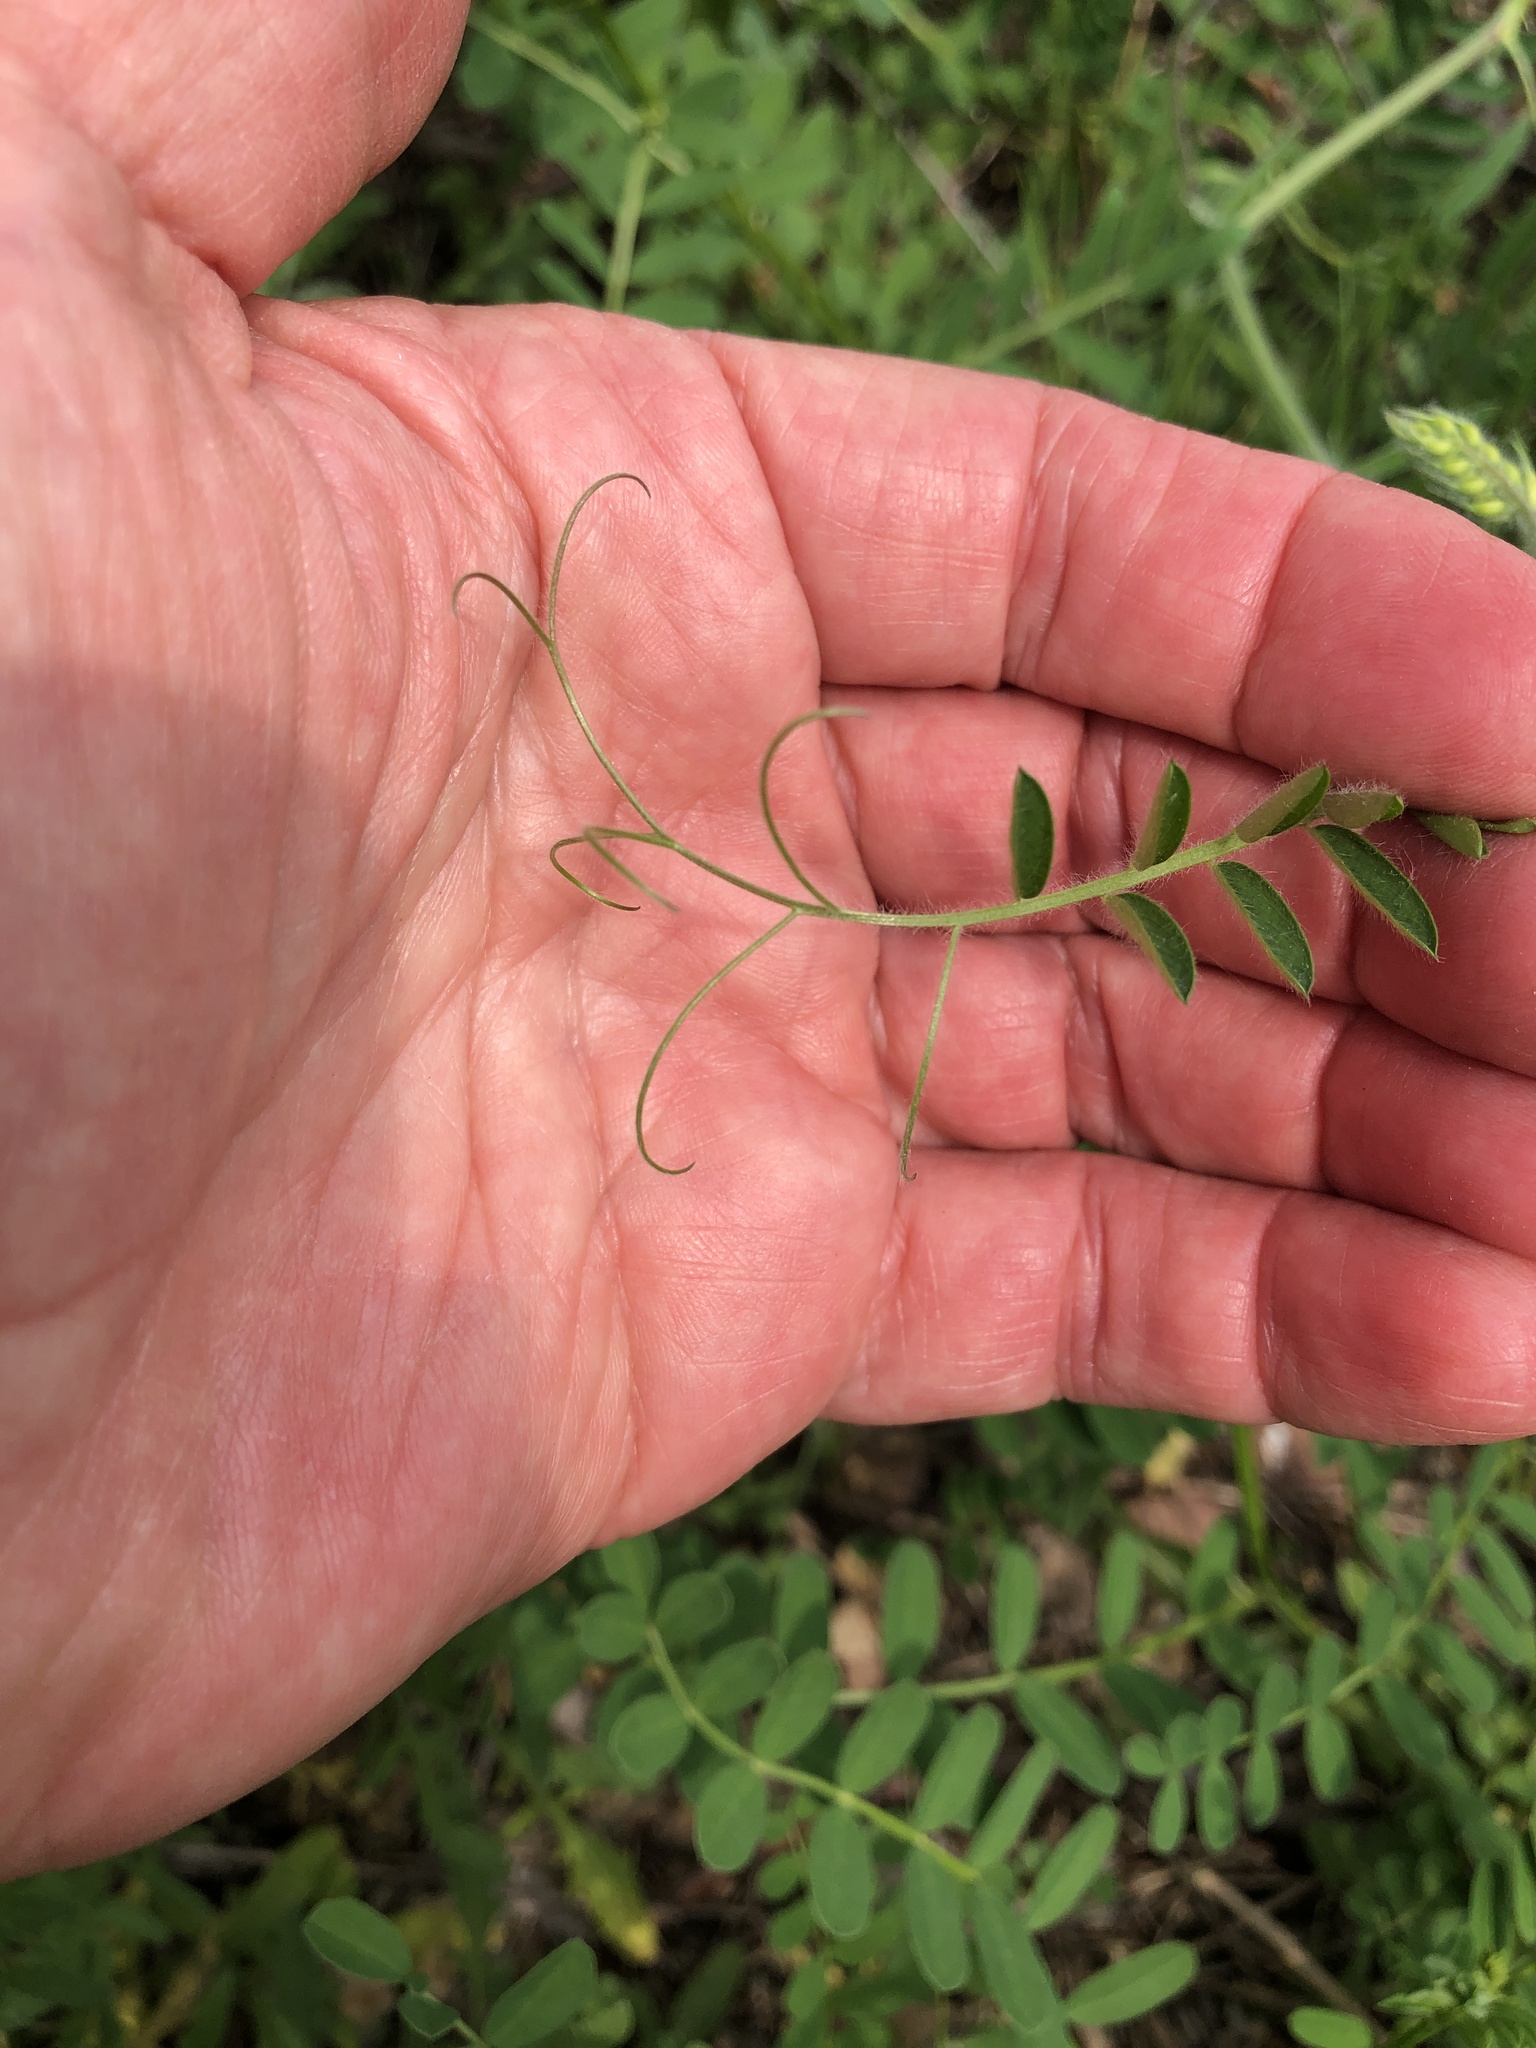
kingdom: Plantae
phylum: Tracheophyta
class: Magnoliopsida
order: Fabales
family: Fabaceae
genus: Vicia
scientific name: Vicia villosa
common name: Fodder vetch
